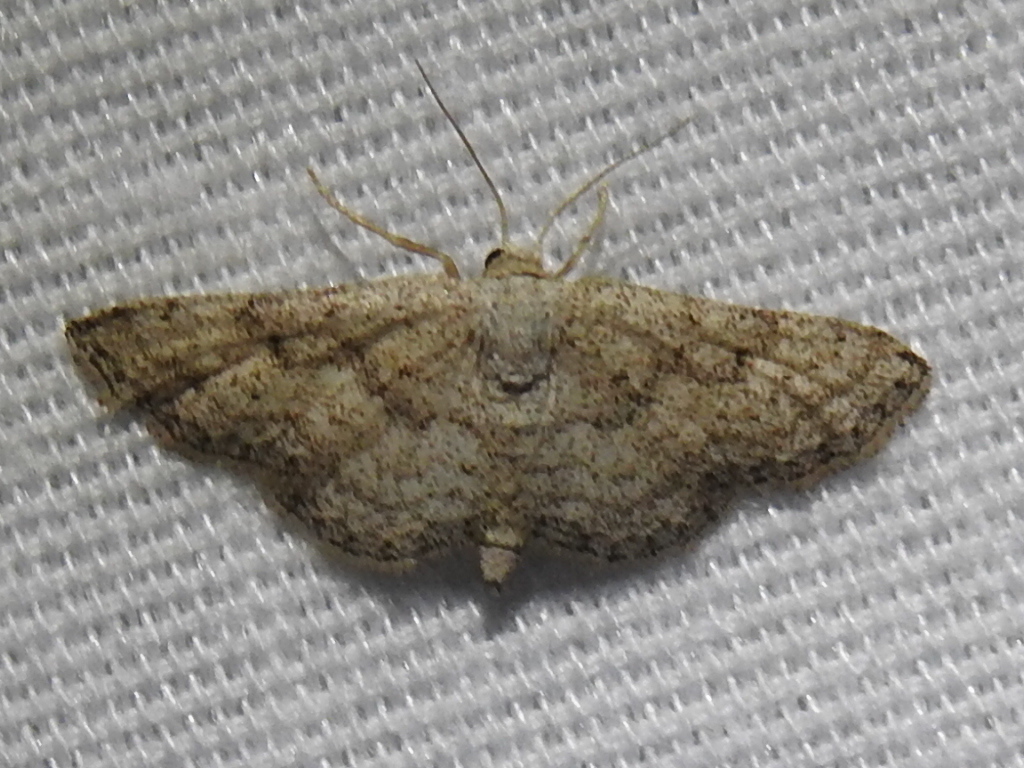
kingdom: Animalia
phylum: Arthropoda
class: Insecta
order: Lepidoptera
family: Geometridae
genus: Lobocleta
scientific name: Lobocleta ossularia
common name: Drab brown wave
